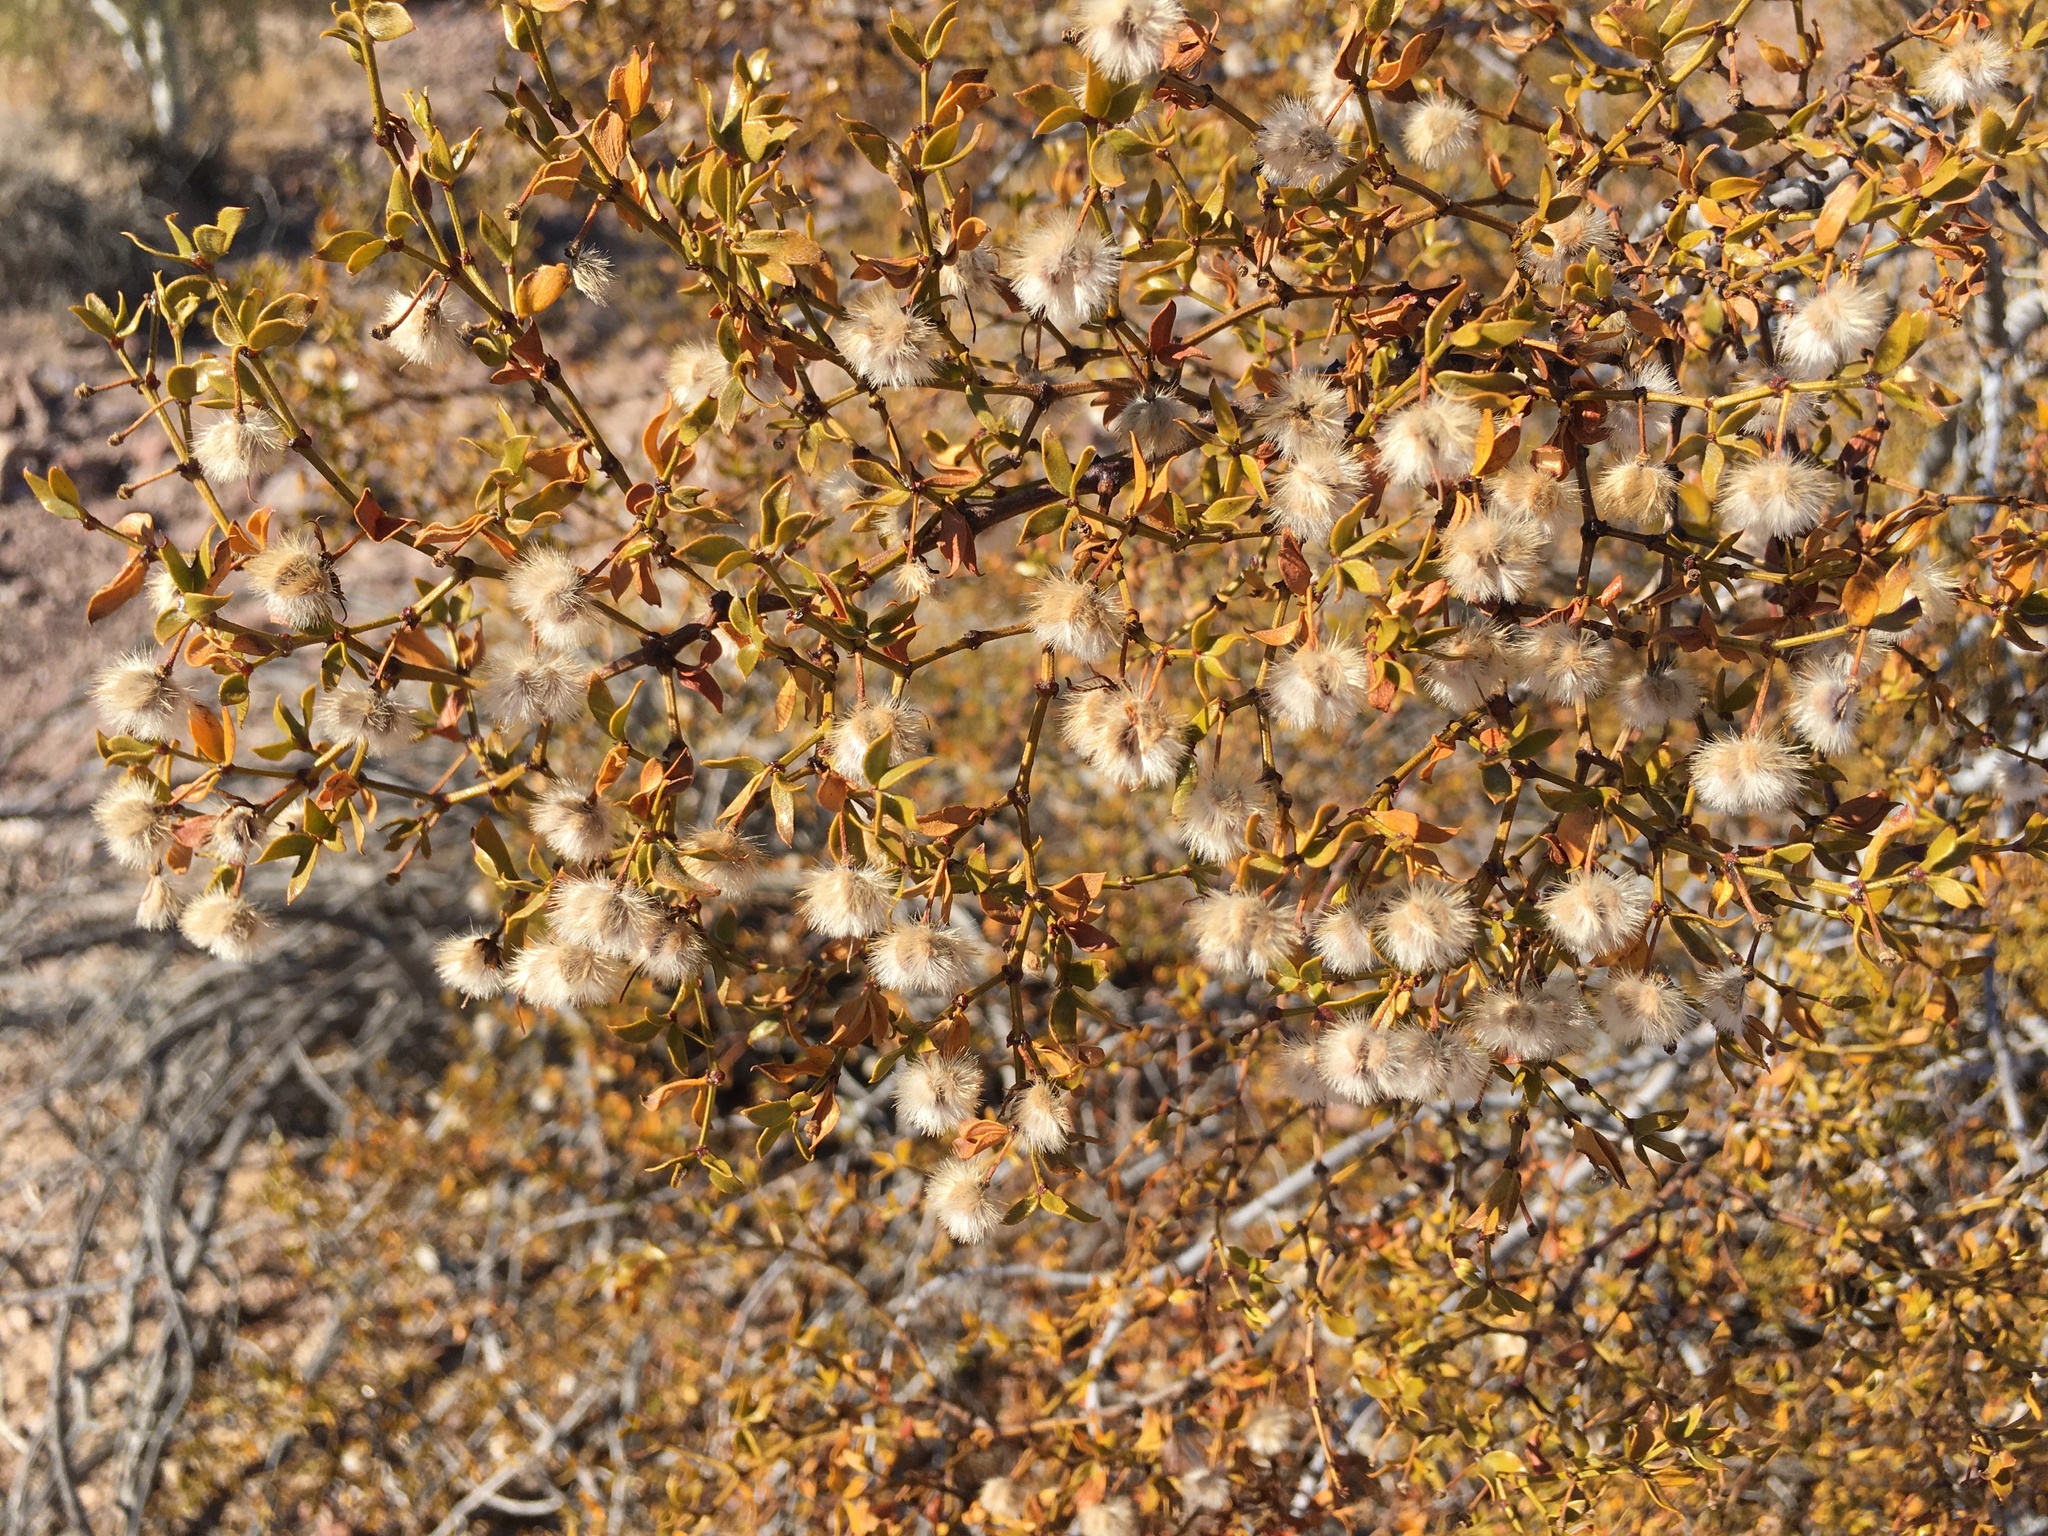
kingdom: Plantae
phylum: Tracheophyta
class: Magnoliopsida
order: Zygophyllales
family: Zygophyllaceae
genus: Larrea
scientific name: Larrea tridentata
